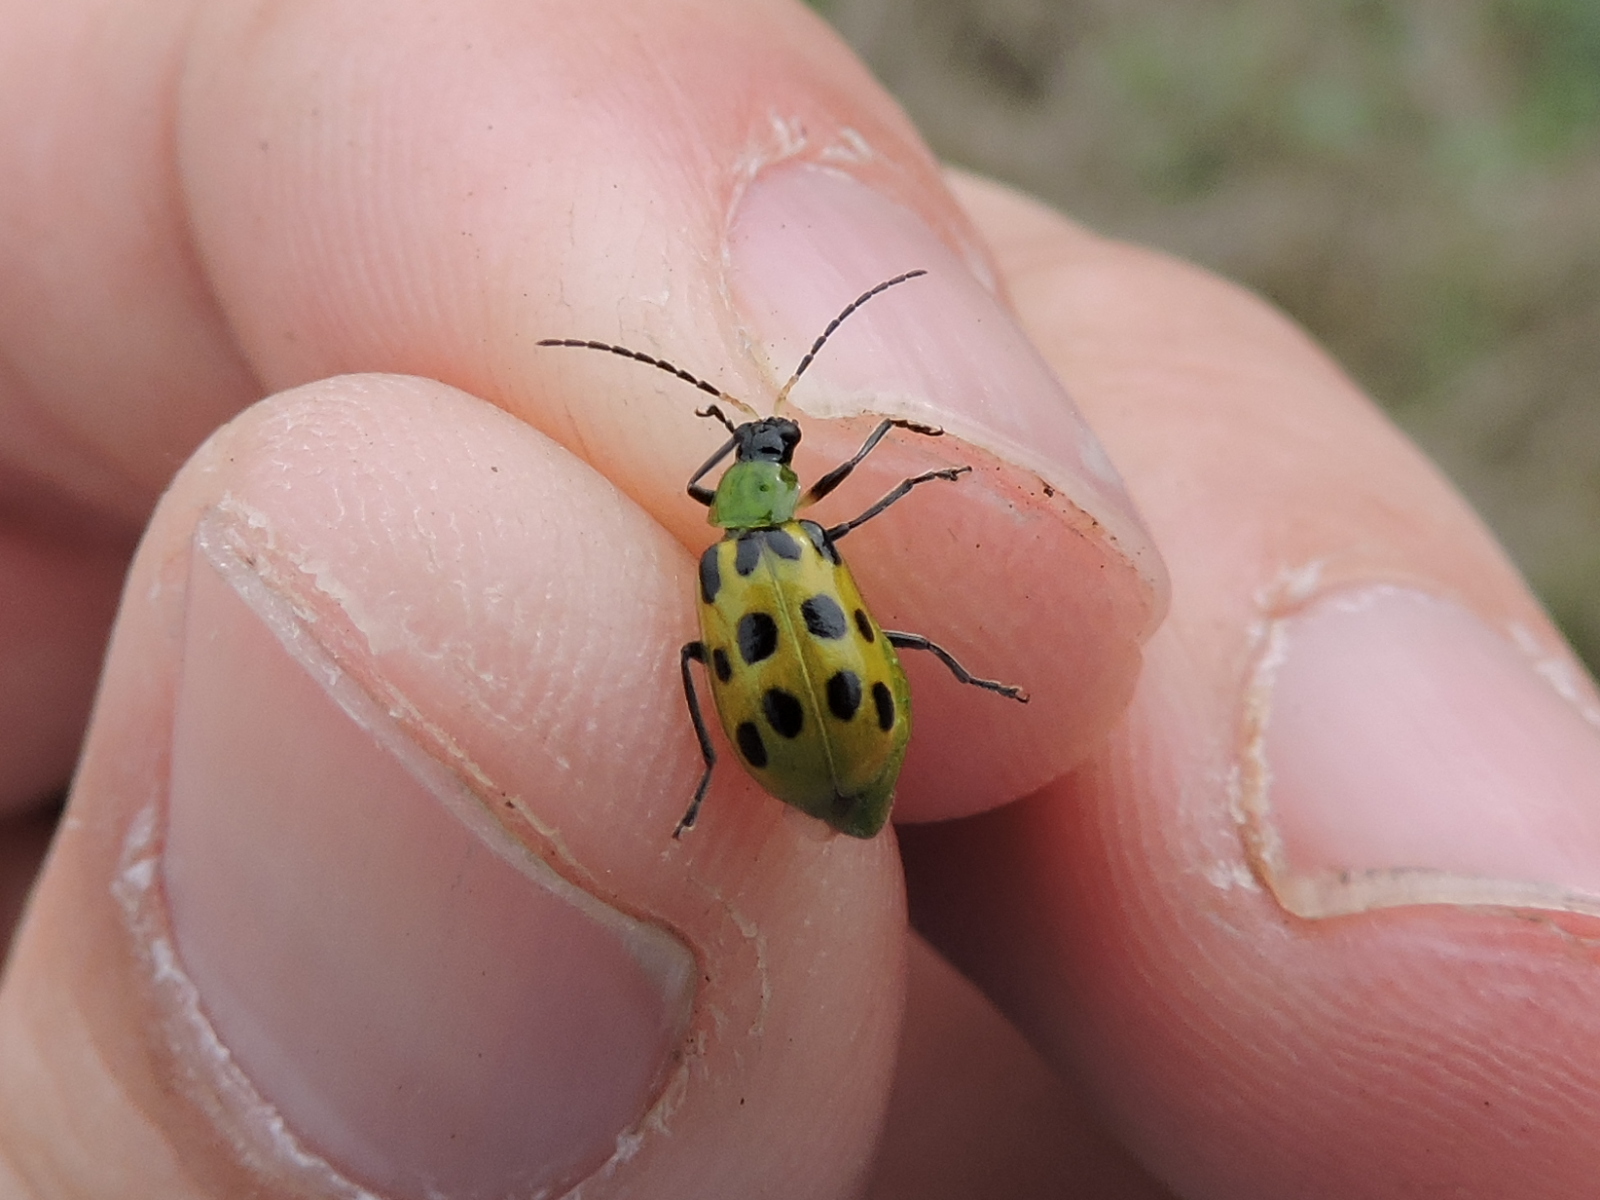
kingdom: Animalia
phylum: Arthropoda
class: Insecta
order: Coleoptera
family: Chrysomelidae
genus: Diabrotica
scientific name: Diabrotica undecimpunctata
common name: Spotted cucumber beetle
